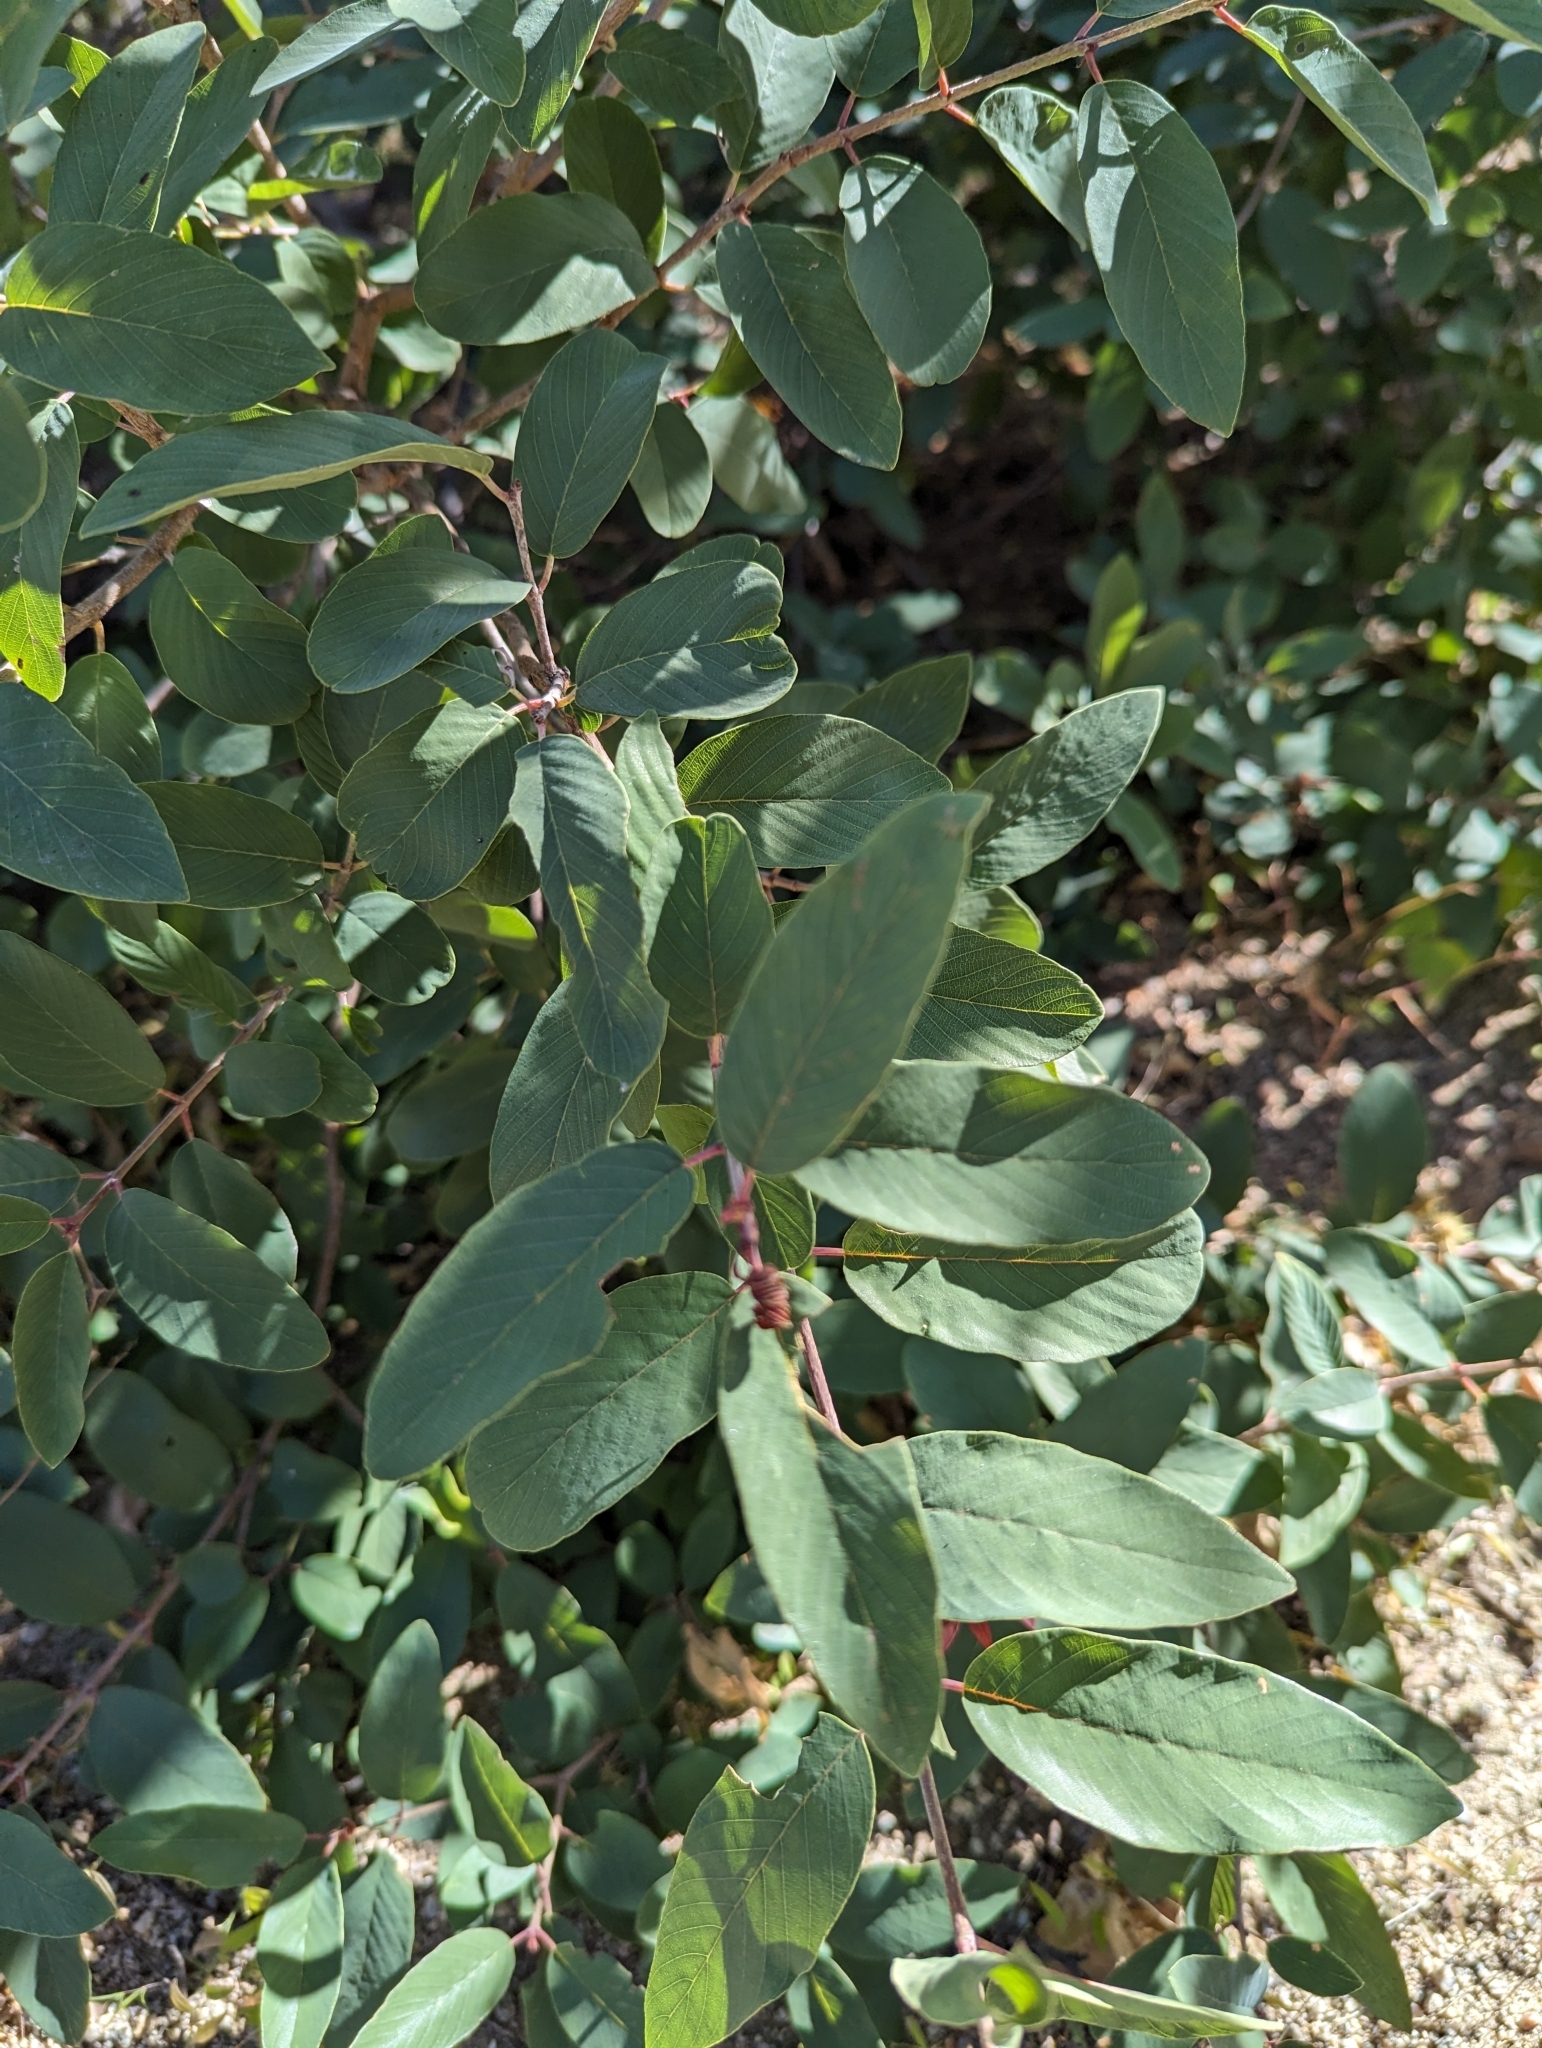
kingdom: Plantae
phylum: Tracheophyta
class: Magnoliopsida
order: Rosales
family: Rhamnaceae
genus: Karwinskia
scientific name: Karwinskia humboldtiana
